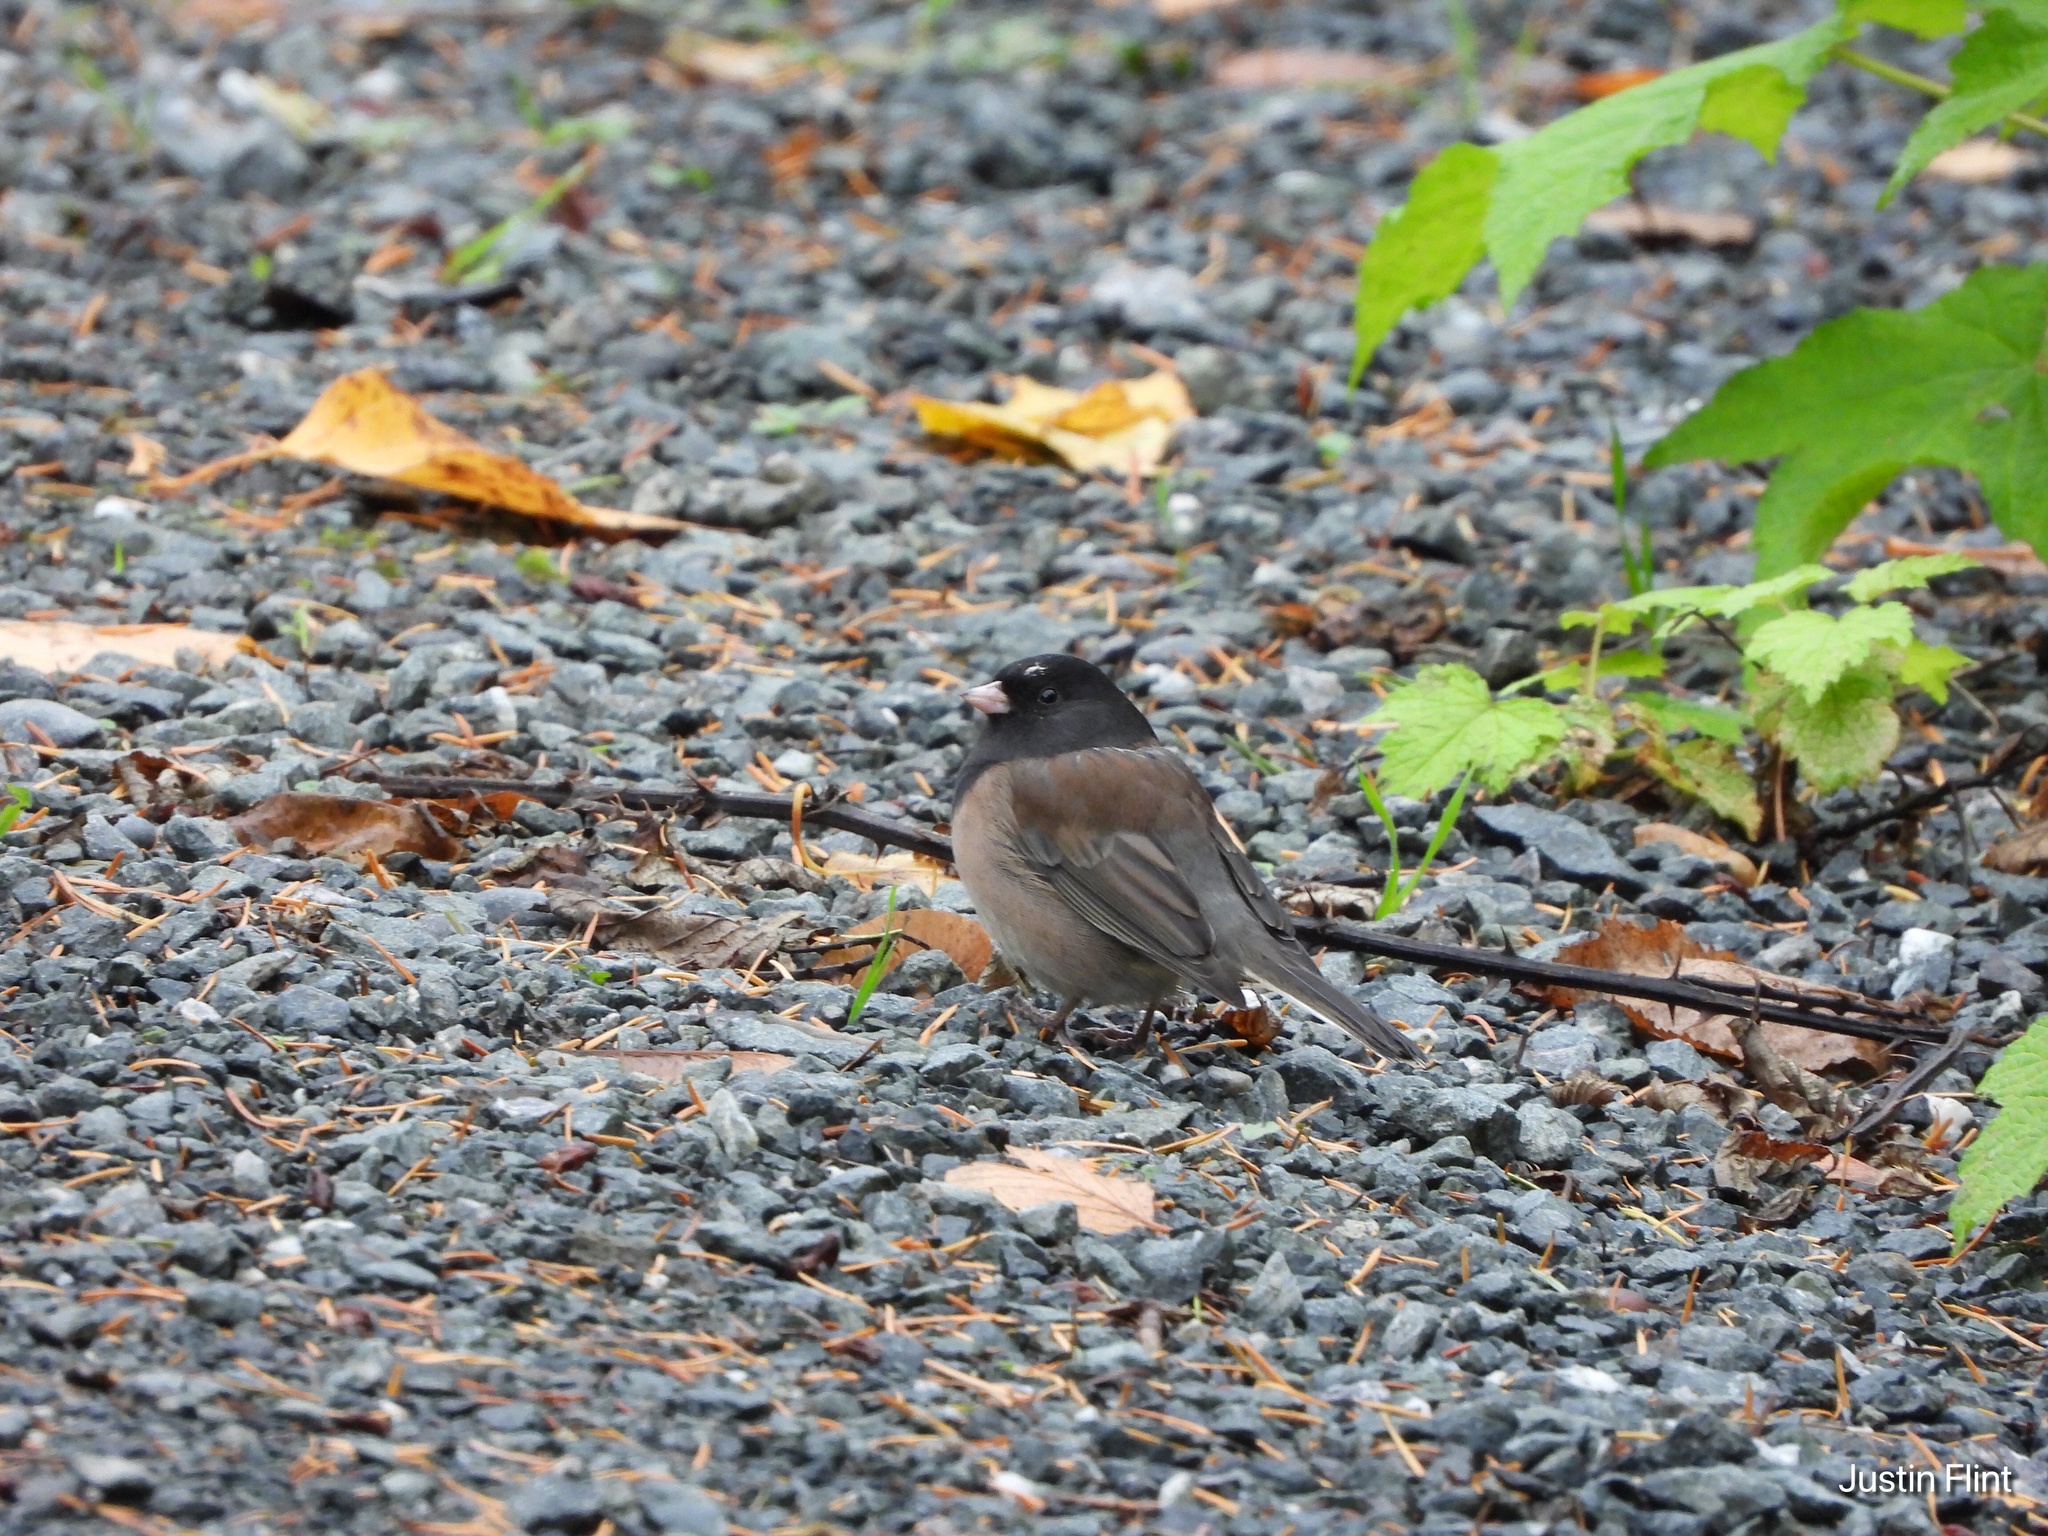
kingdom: Animalia
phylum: Chordata
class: Aves
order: Passeriformes
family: Passerellidae
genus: Junco
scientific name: Junco hyemalis
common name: Dark-eyed junco
